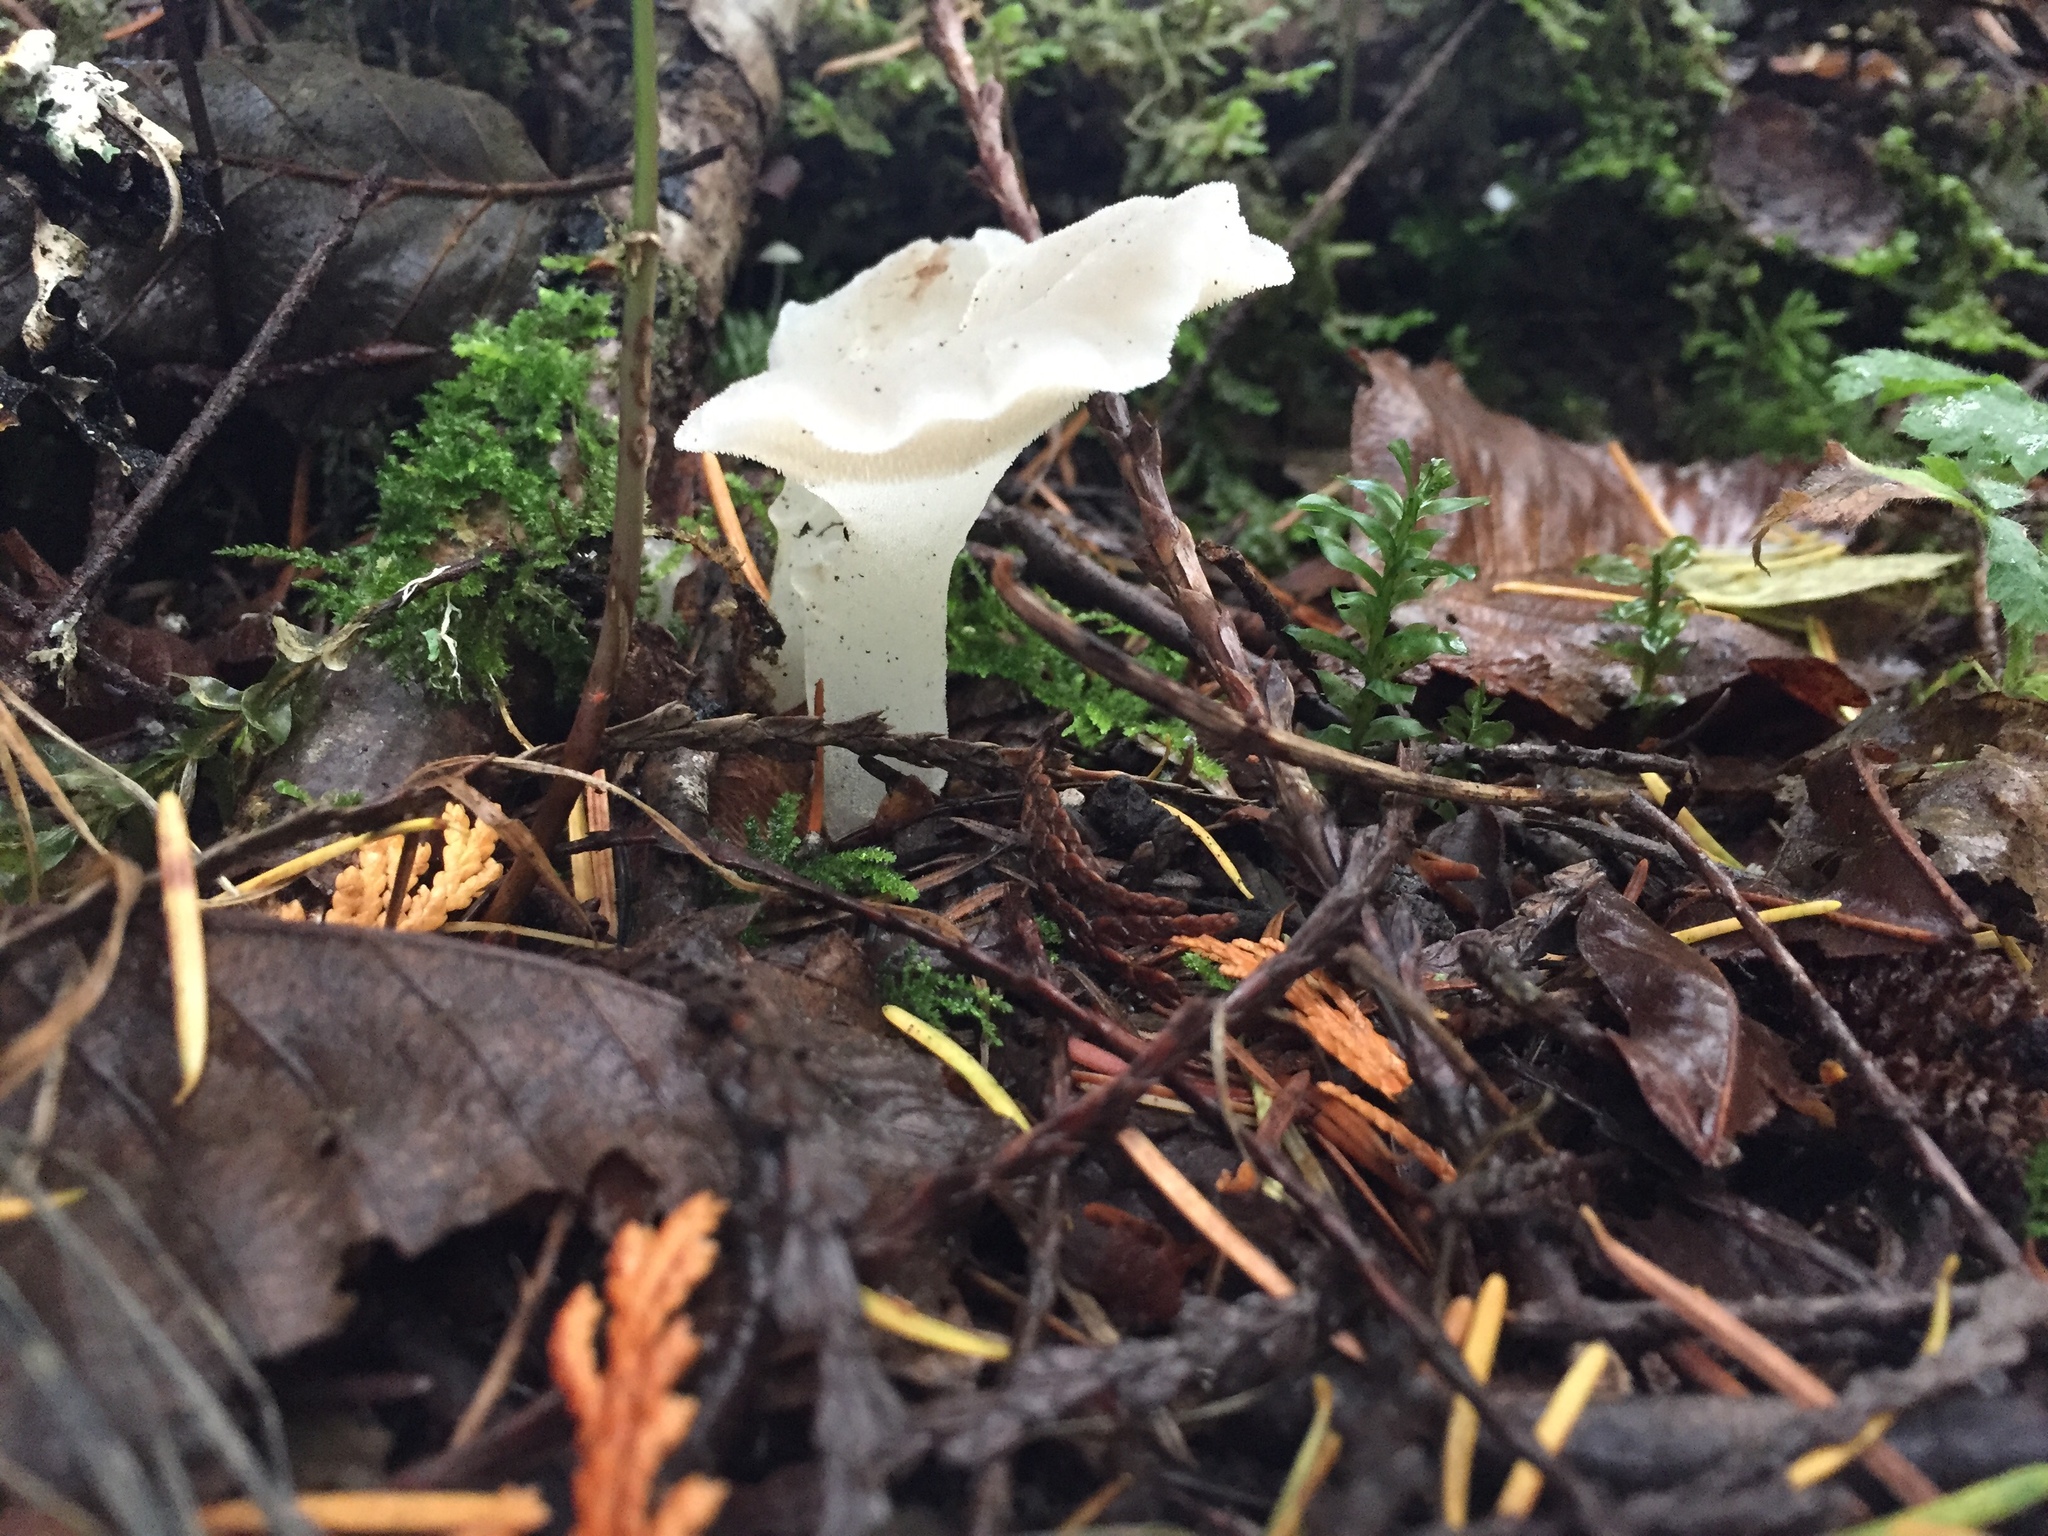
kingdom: Fungi
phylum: Basidiomycota
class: Agaricomycetes
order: Auriculariales
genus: Pseudohydnum
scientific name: Pseudohydnum gelatinosum
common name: Jelly tongue
